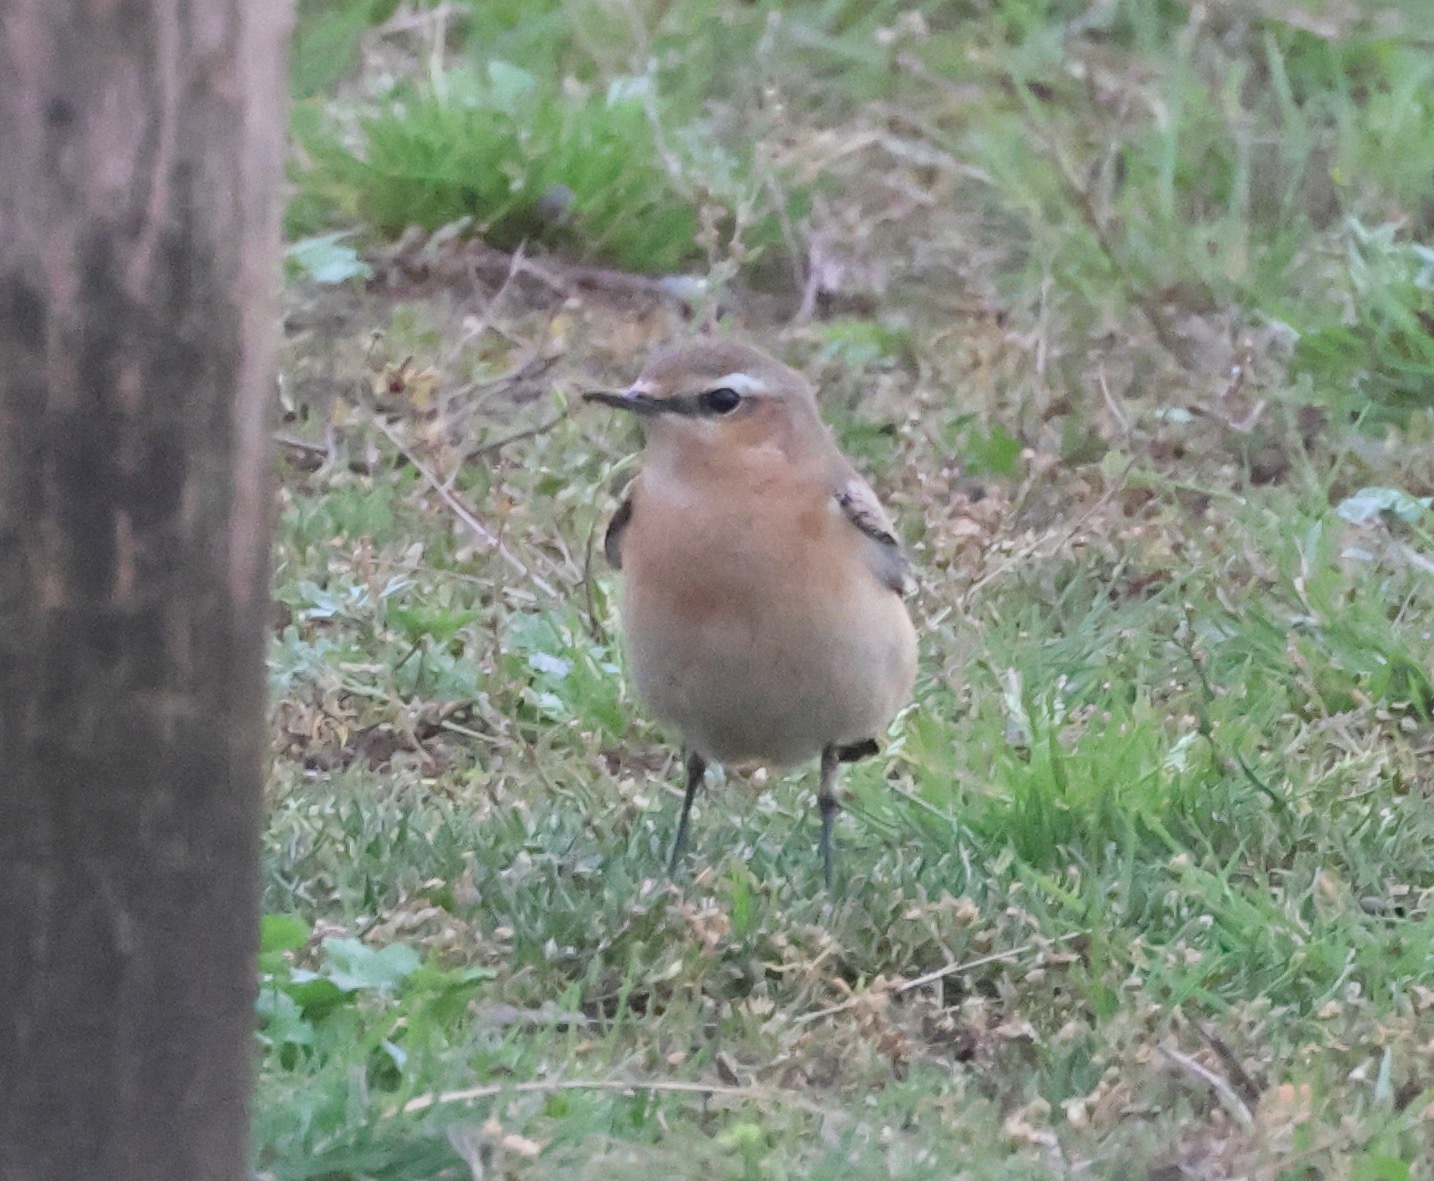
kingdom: Animalia
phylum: Chordata
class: Aves
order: Passeriformes
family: Muscicapidae
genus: Oenanthe
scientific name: Oenanthe oenanthe
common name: Northern wheatear
